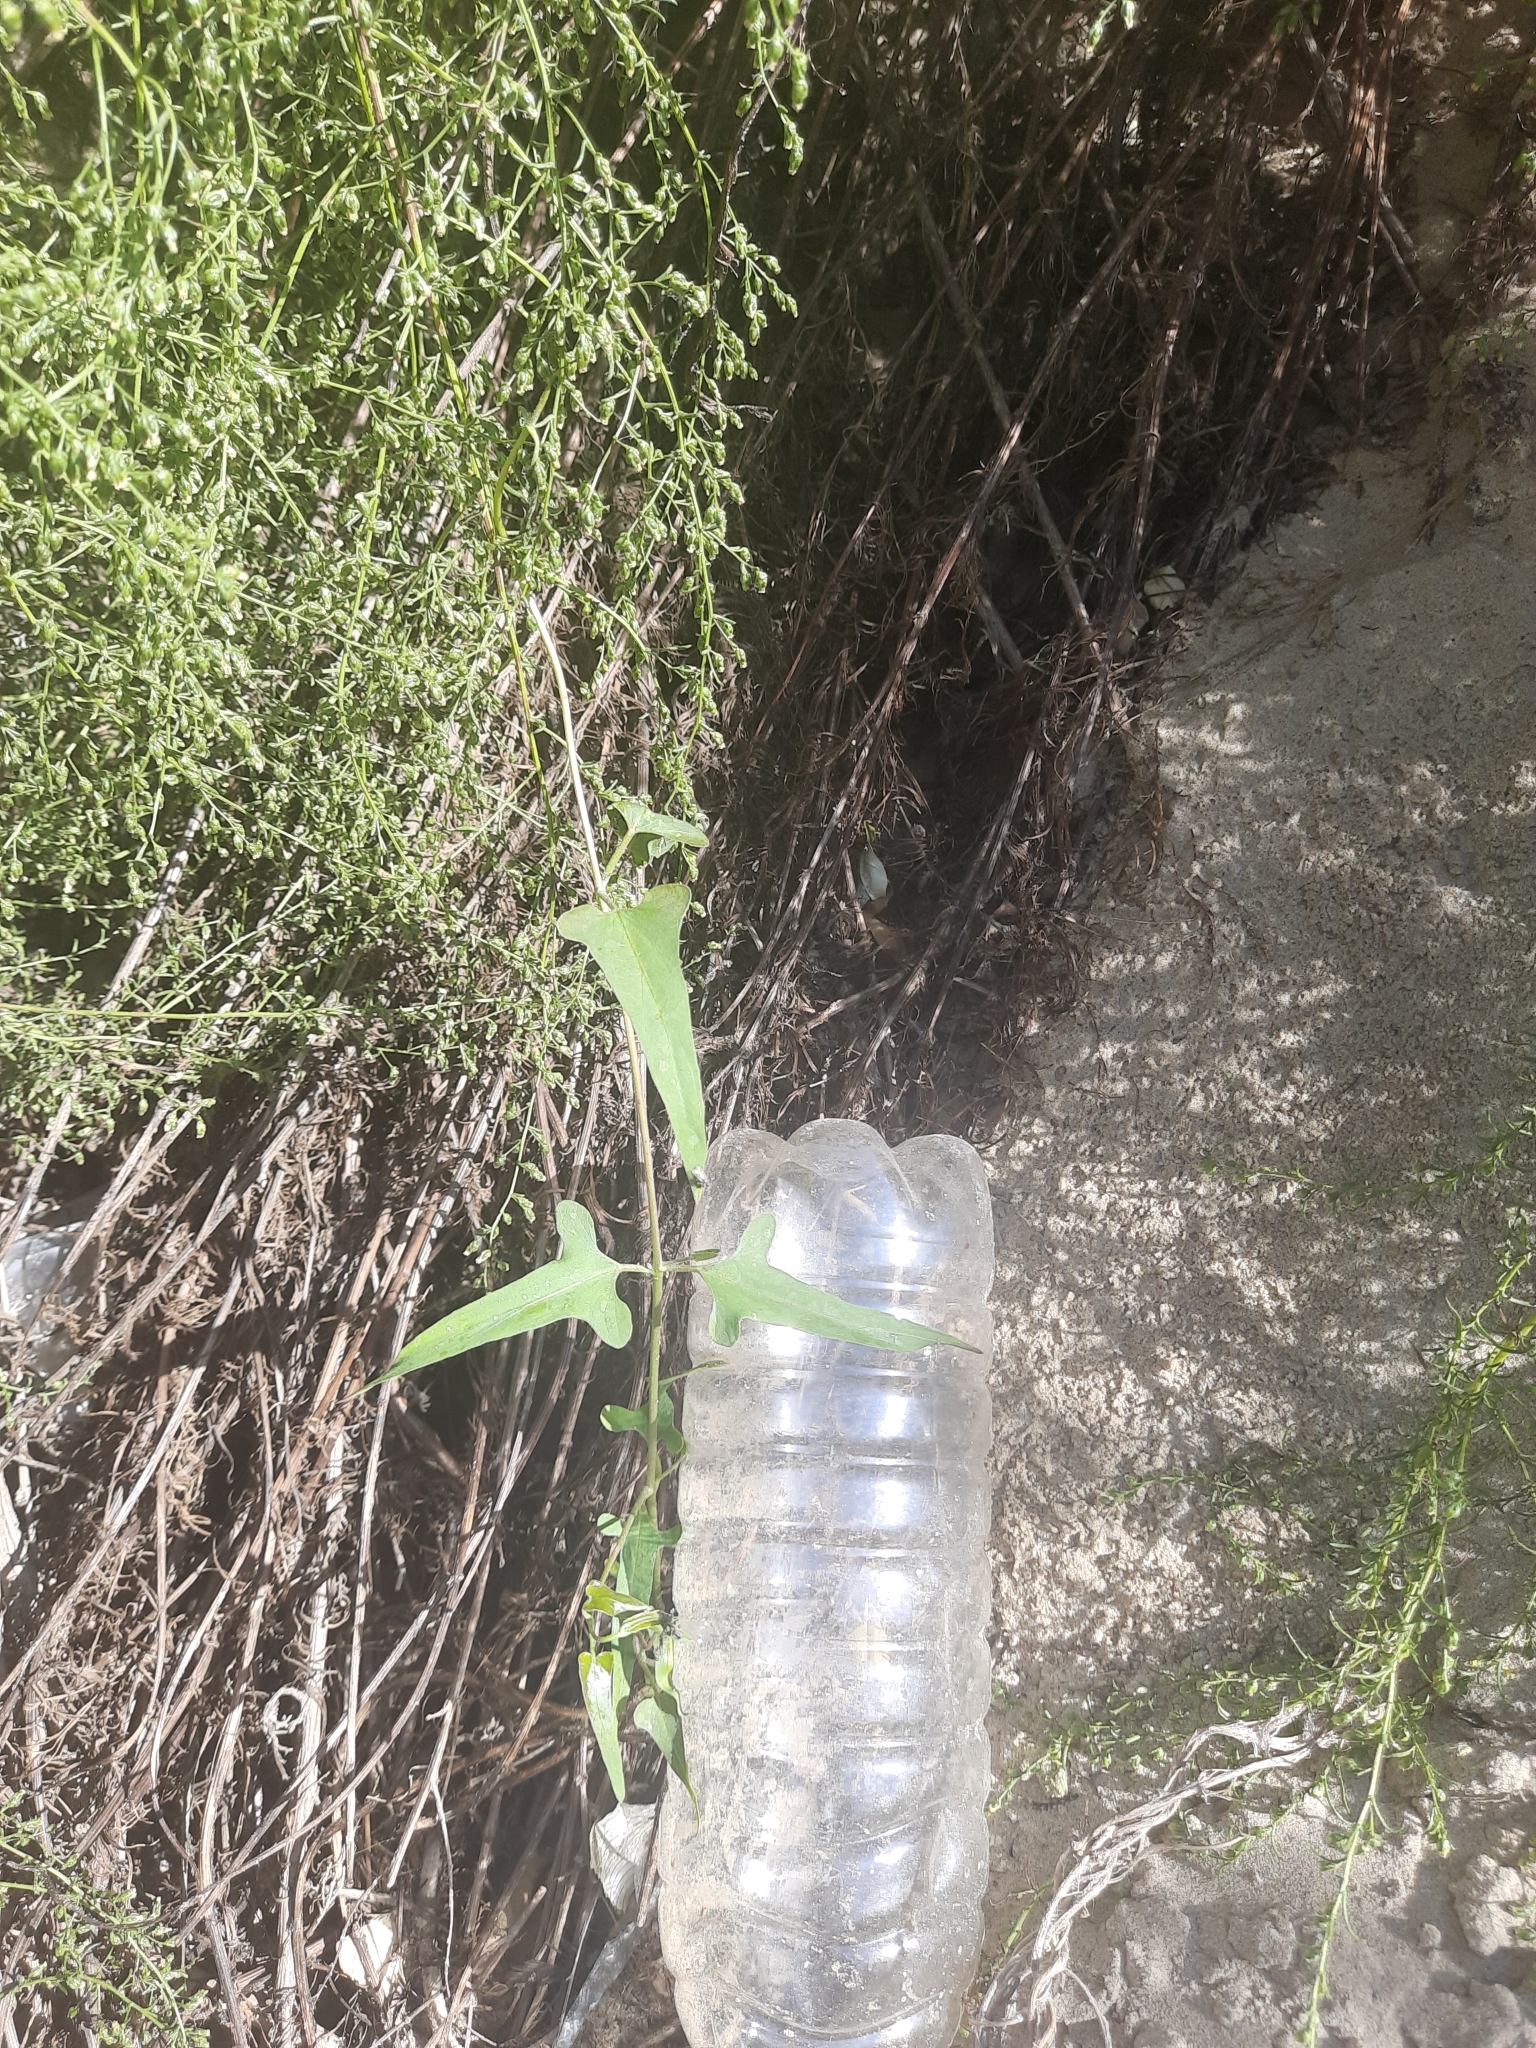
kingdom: Plantae
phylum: Tracheophyta
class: Magnoliopsida
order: Gentianales
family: Apocynaceae
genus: Cynanchum
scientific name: Cynanchum acutum
